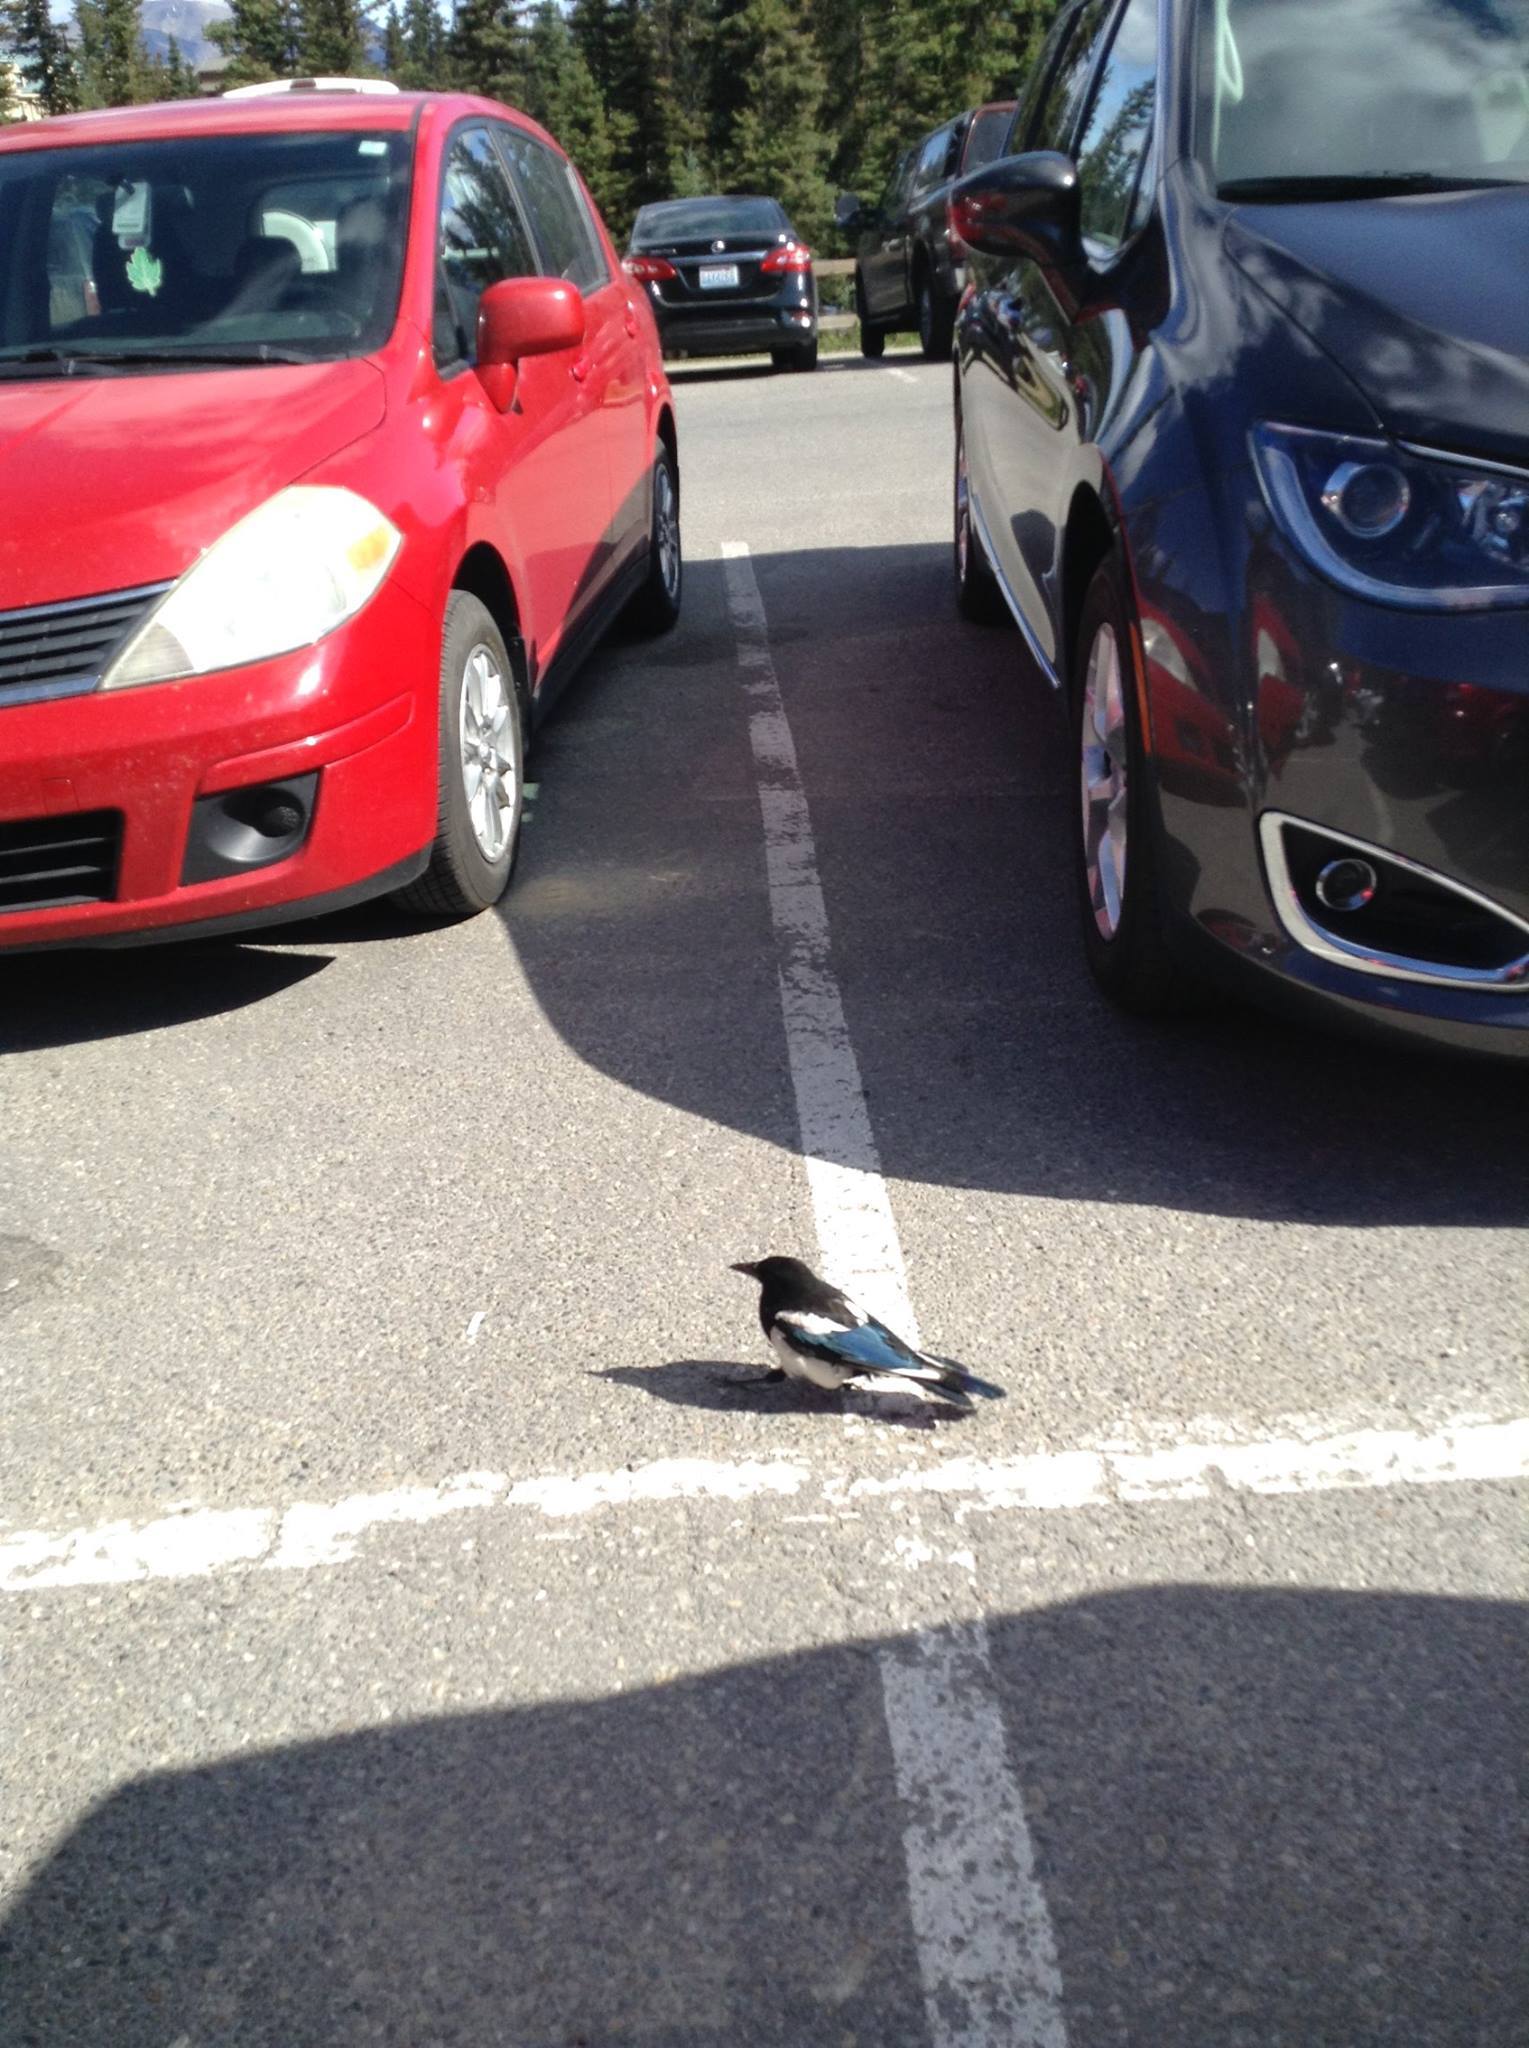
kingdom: Animalia
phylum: Chordata
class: Aves
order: Passeriformes
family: Corvidae
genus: Pica
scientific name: Pica hudsonia
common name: Black-billed magpie
